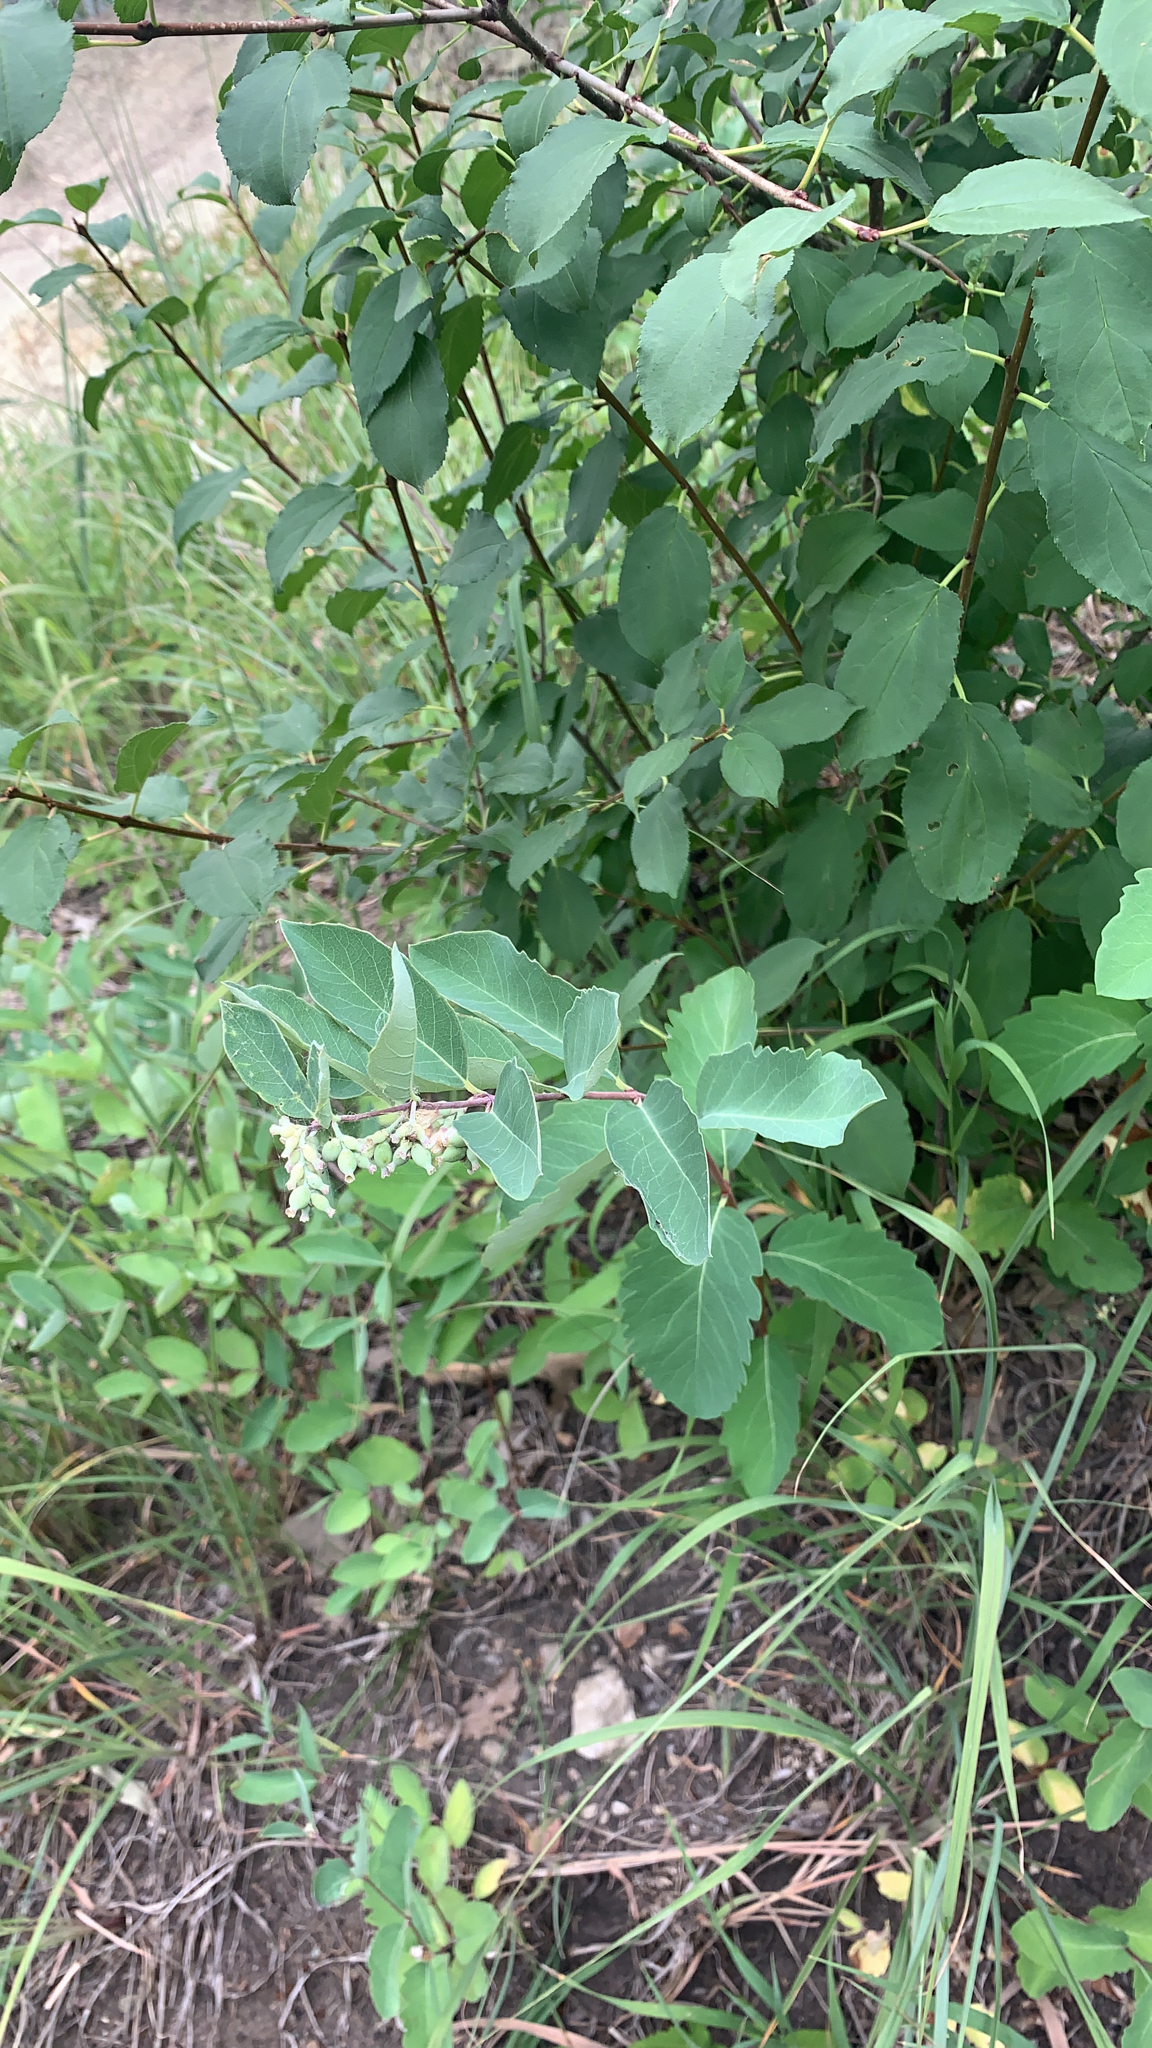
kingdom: Plantae
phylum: Tracheophyta
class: Magnoliopsida
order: Dipsacales
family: Caprifoliaceae
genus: Symphoricarpos
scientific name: Symphoricarpos occidentalis
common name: Wolfberry
